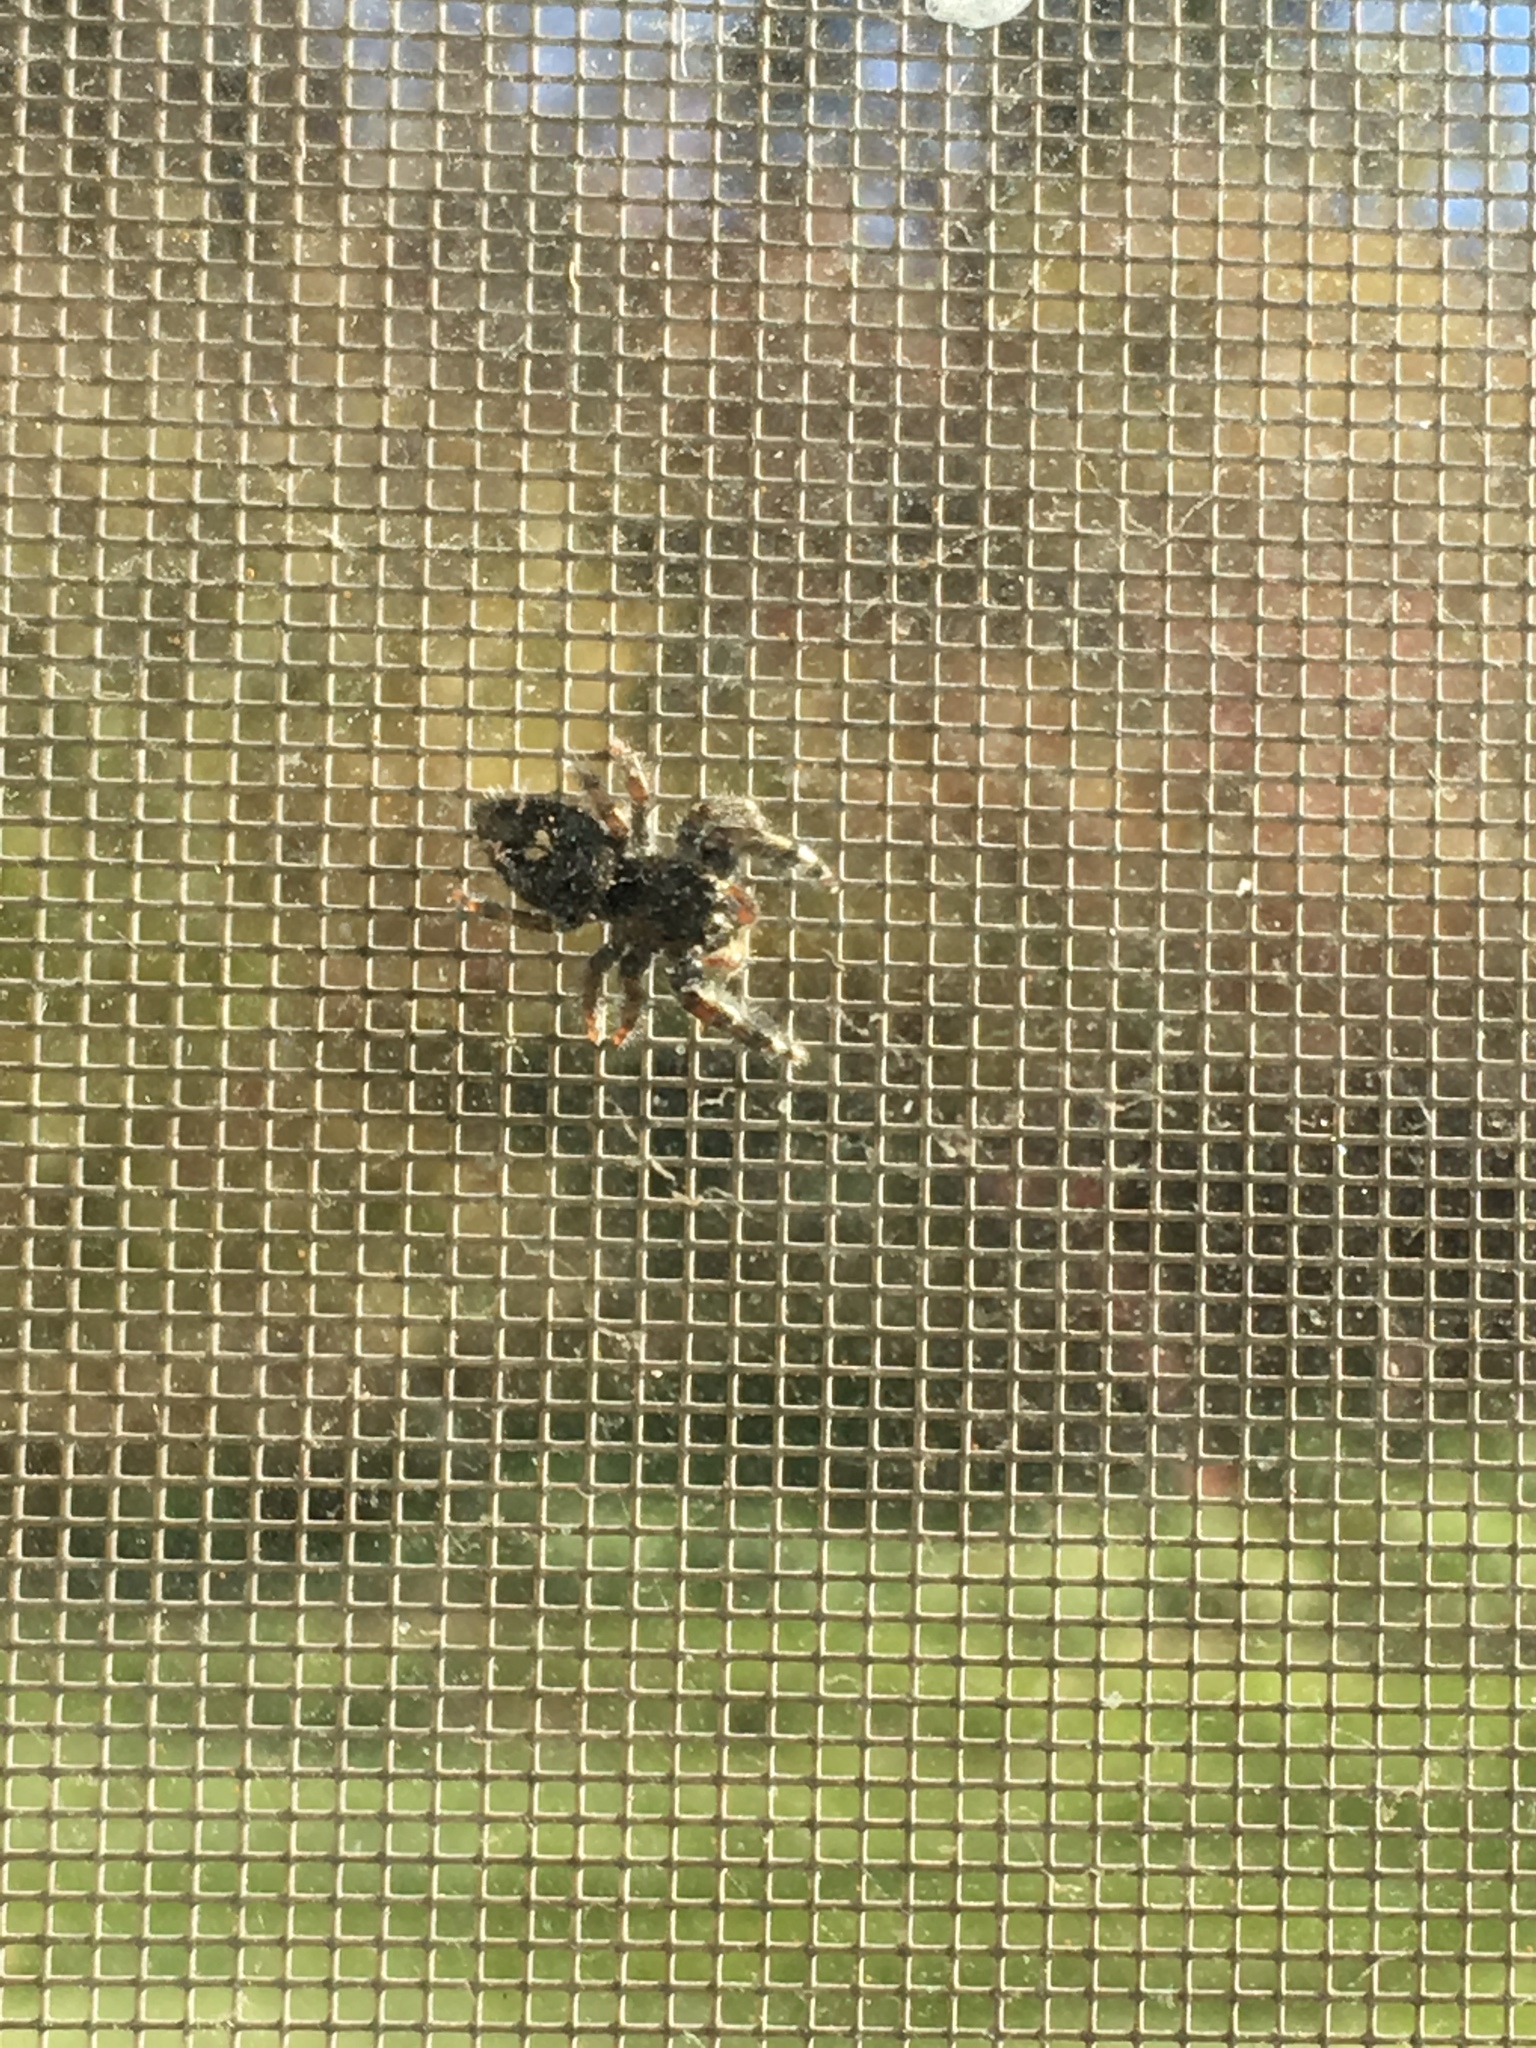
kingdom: Animalia
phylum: Arthropoda
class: Arachnida
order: Araneae
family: Salticidae
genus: Phidippus
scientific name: Phidippus audax
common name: Bold jumper
